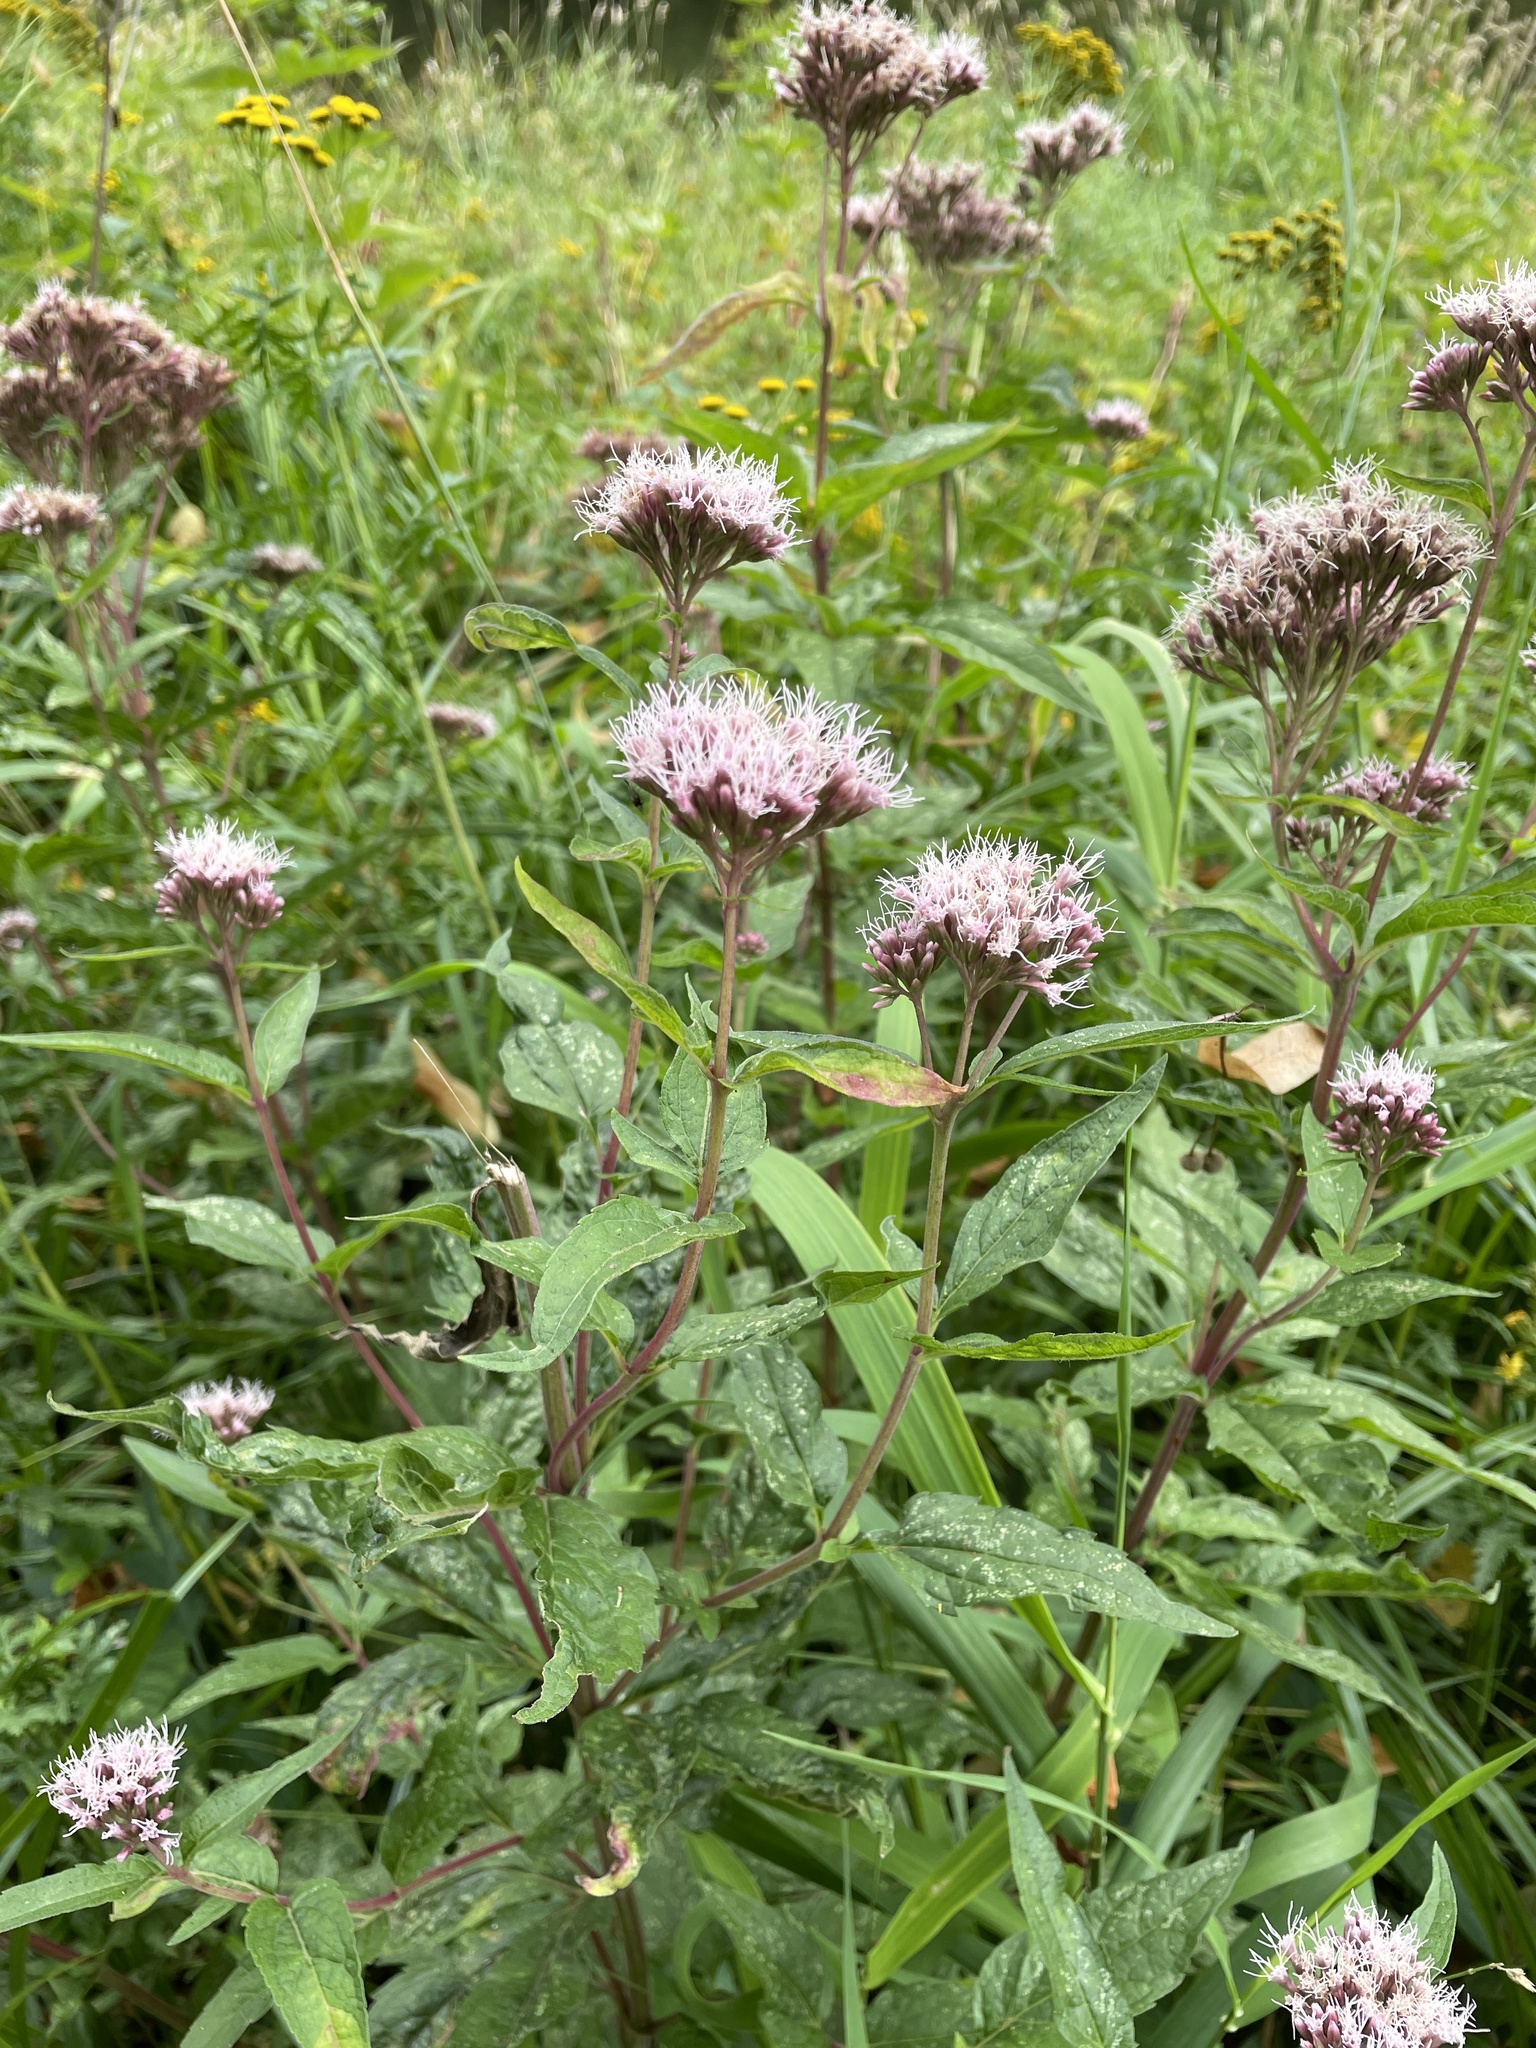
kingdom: Plantae
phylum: Tracheophyta
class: Magnoliopsida
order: Asterales
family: Asteraceae
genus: Eupatorium
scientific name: Eupatorium cannabinum
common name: Hemp-agrimony
